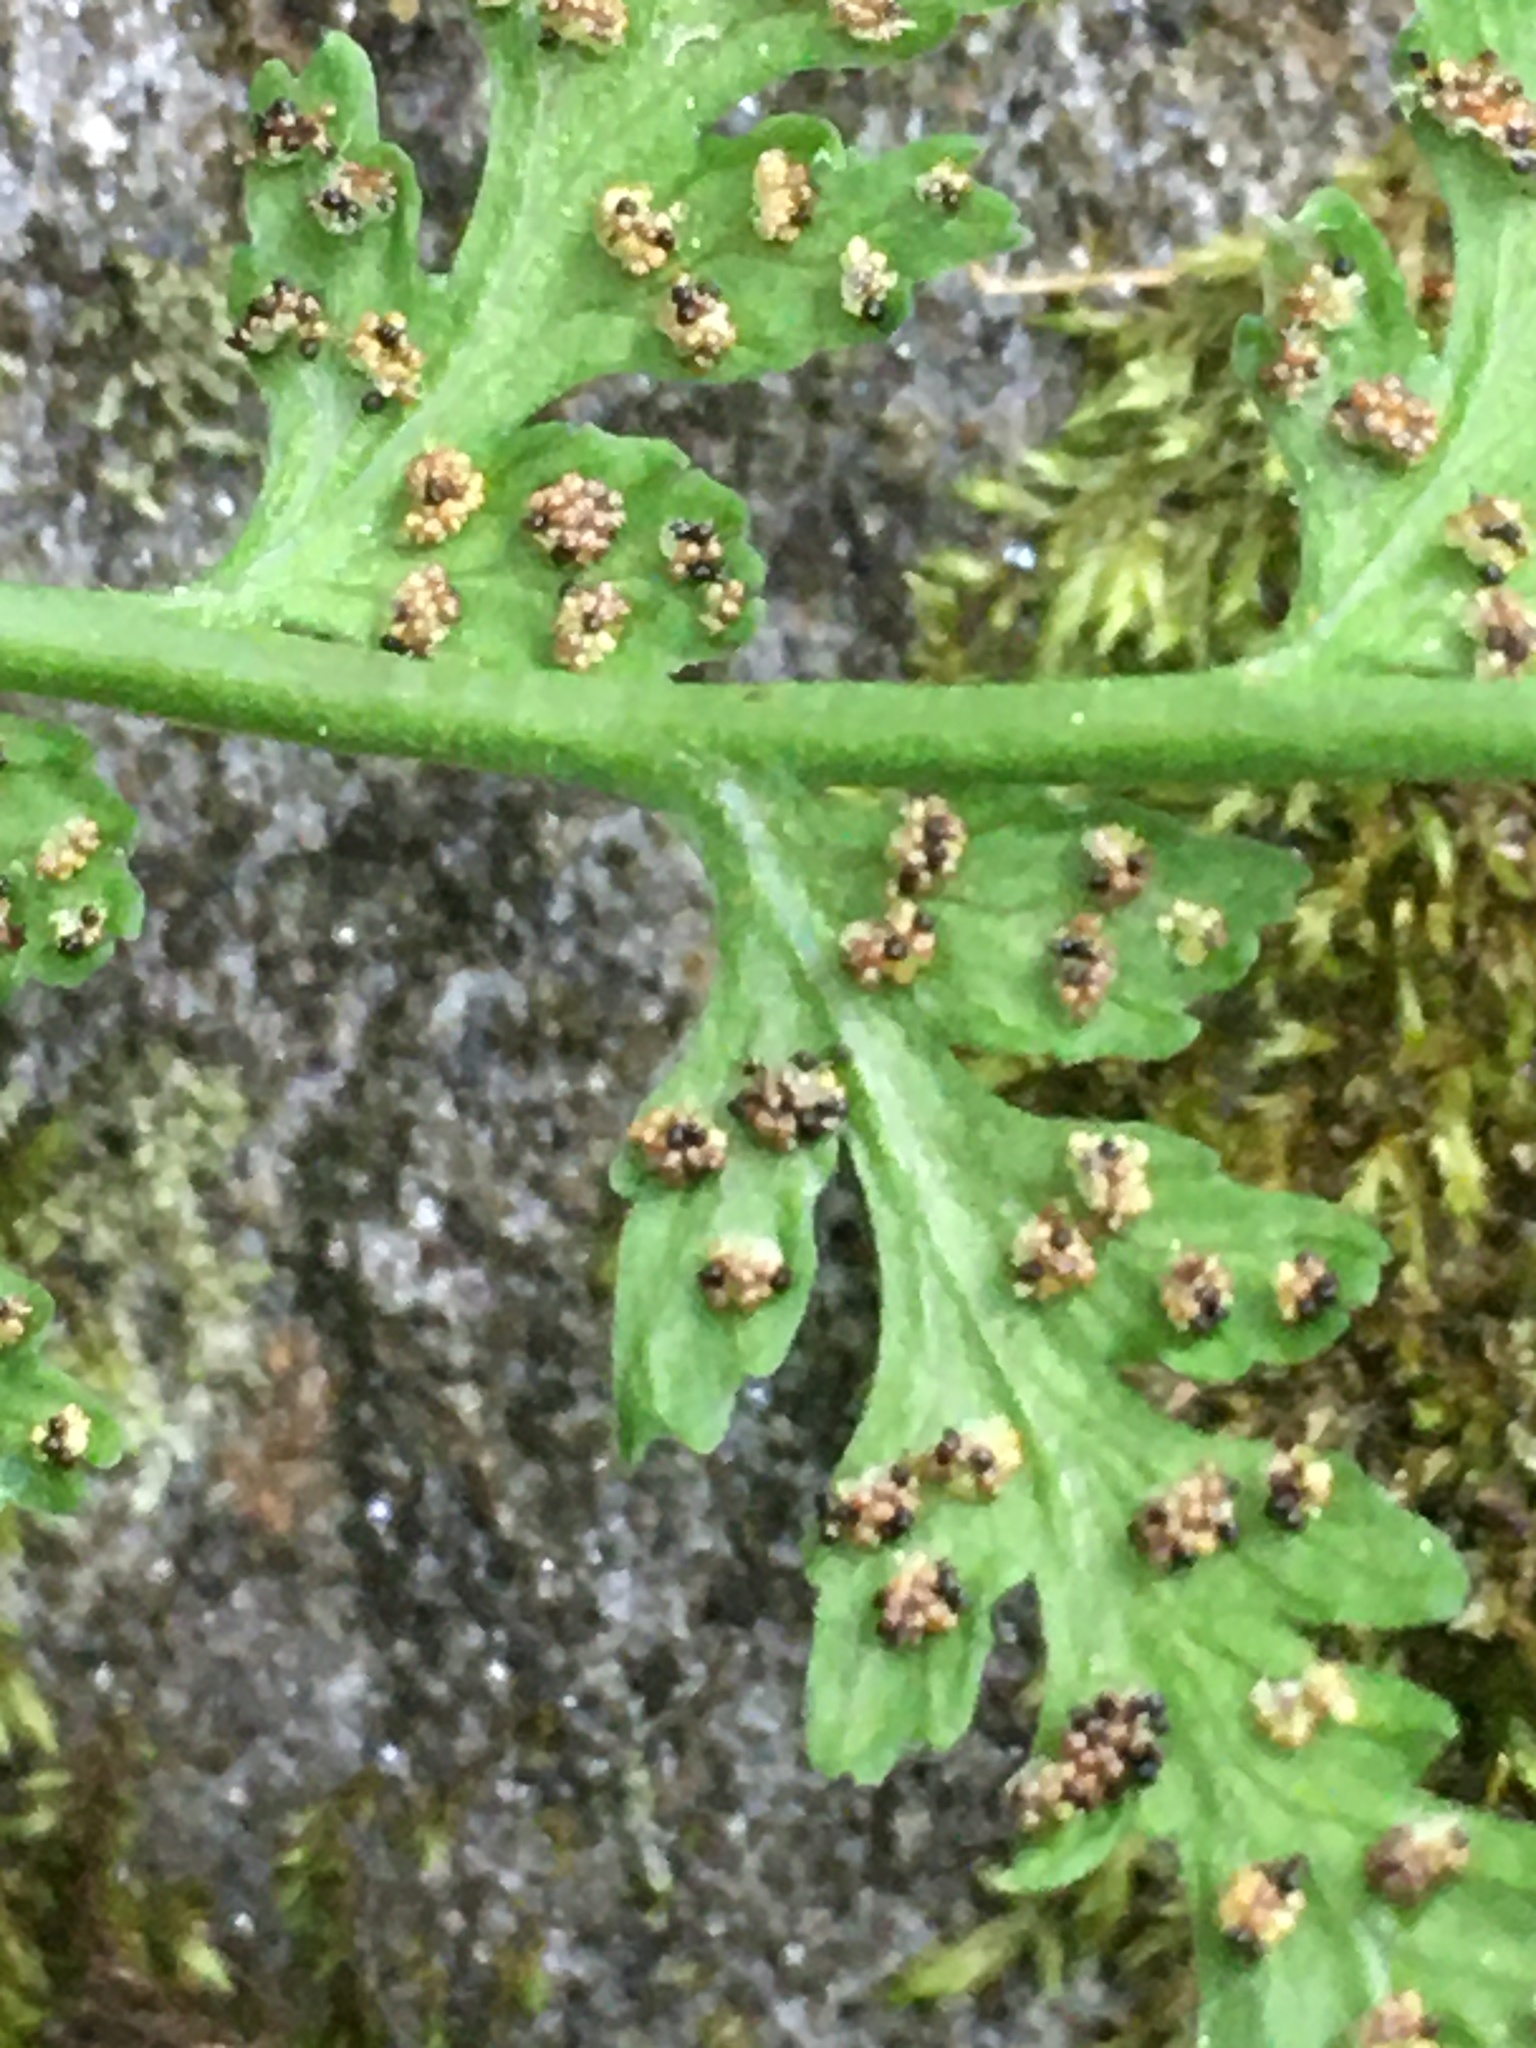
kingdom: Plantae
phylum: Tracheophyta
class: Polypodiopsida
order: Polypodiales
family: Cystopteridaceae
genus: Cystopteris
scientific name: Cystopteris tenuis
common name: Mackay's brittle fern
